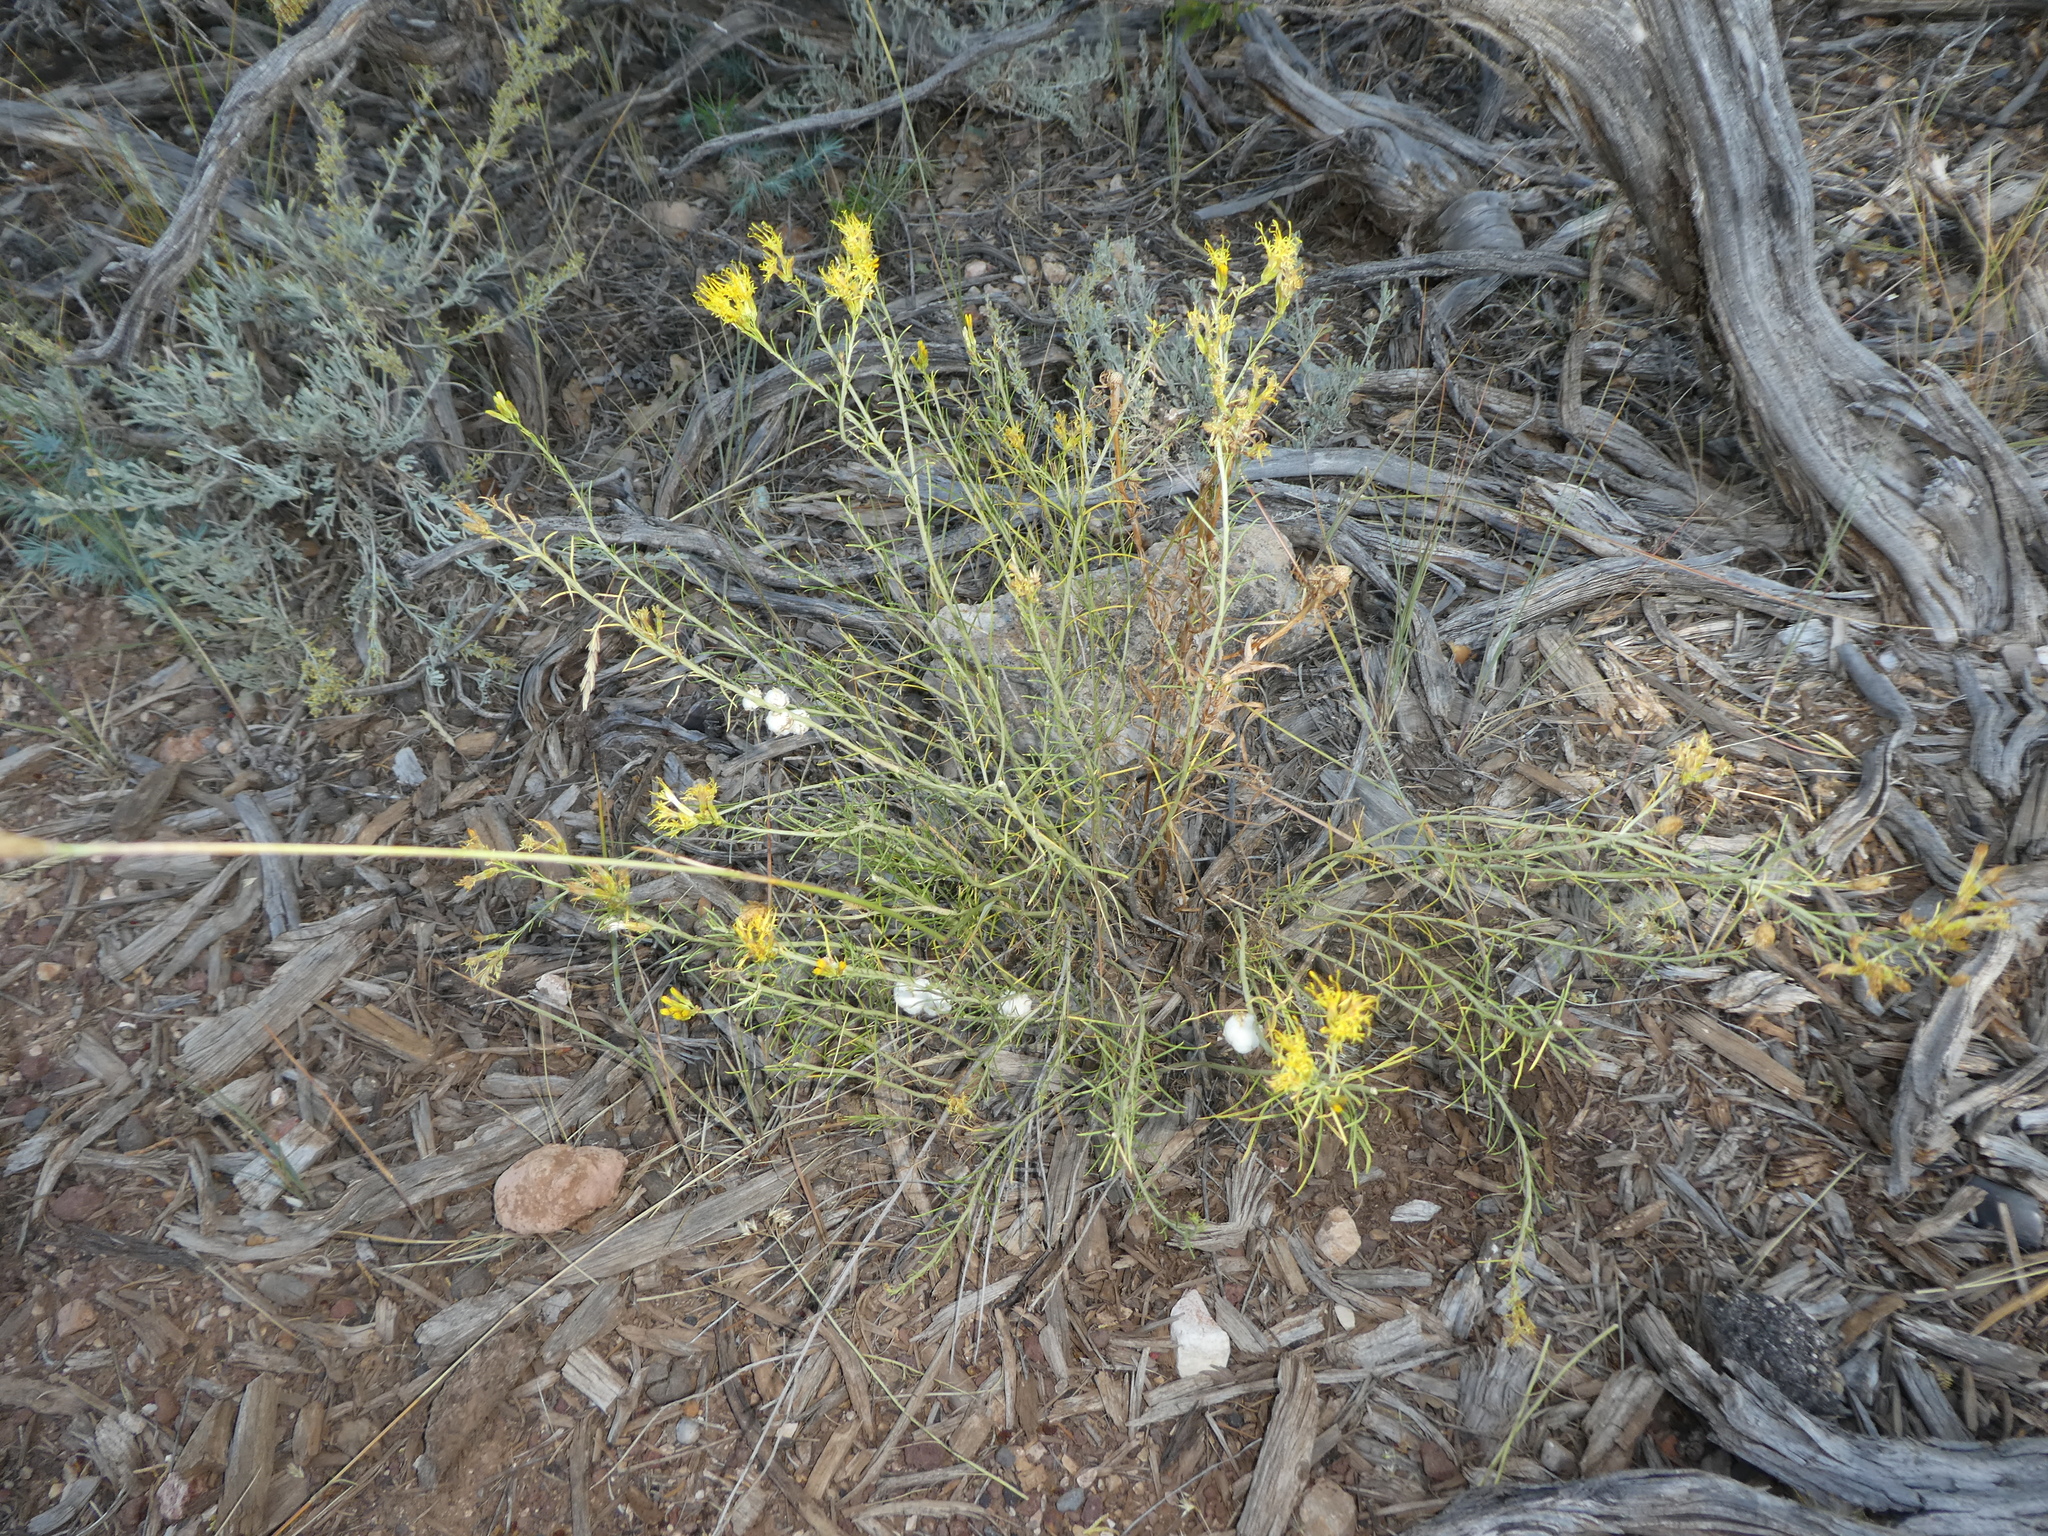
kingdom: Animalia
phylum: Arthropoda
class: Insecta
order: Diptera
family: Tephritidae
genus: Aciurina
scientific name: Aciurina bigeloviae
